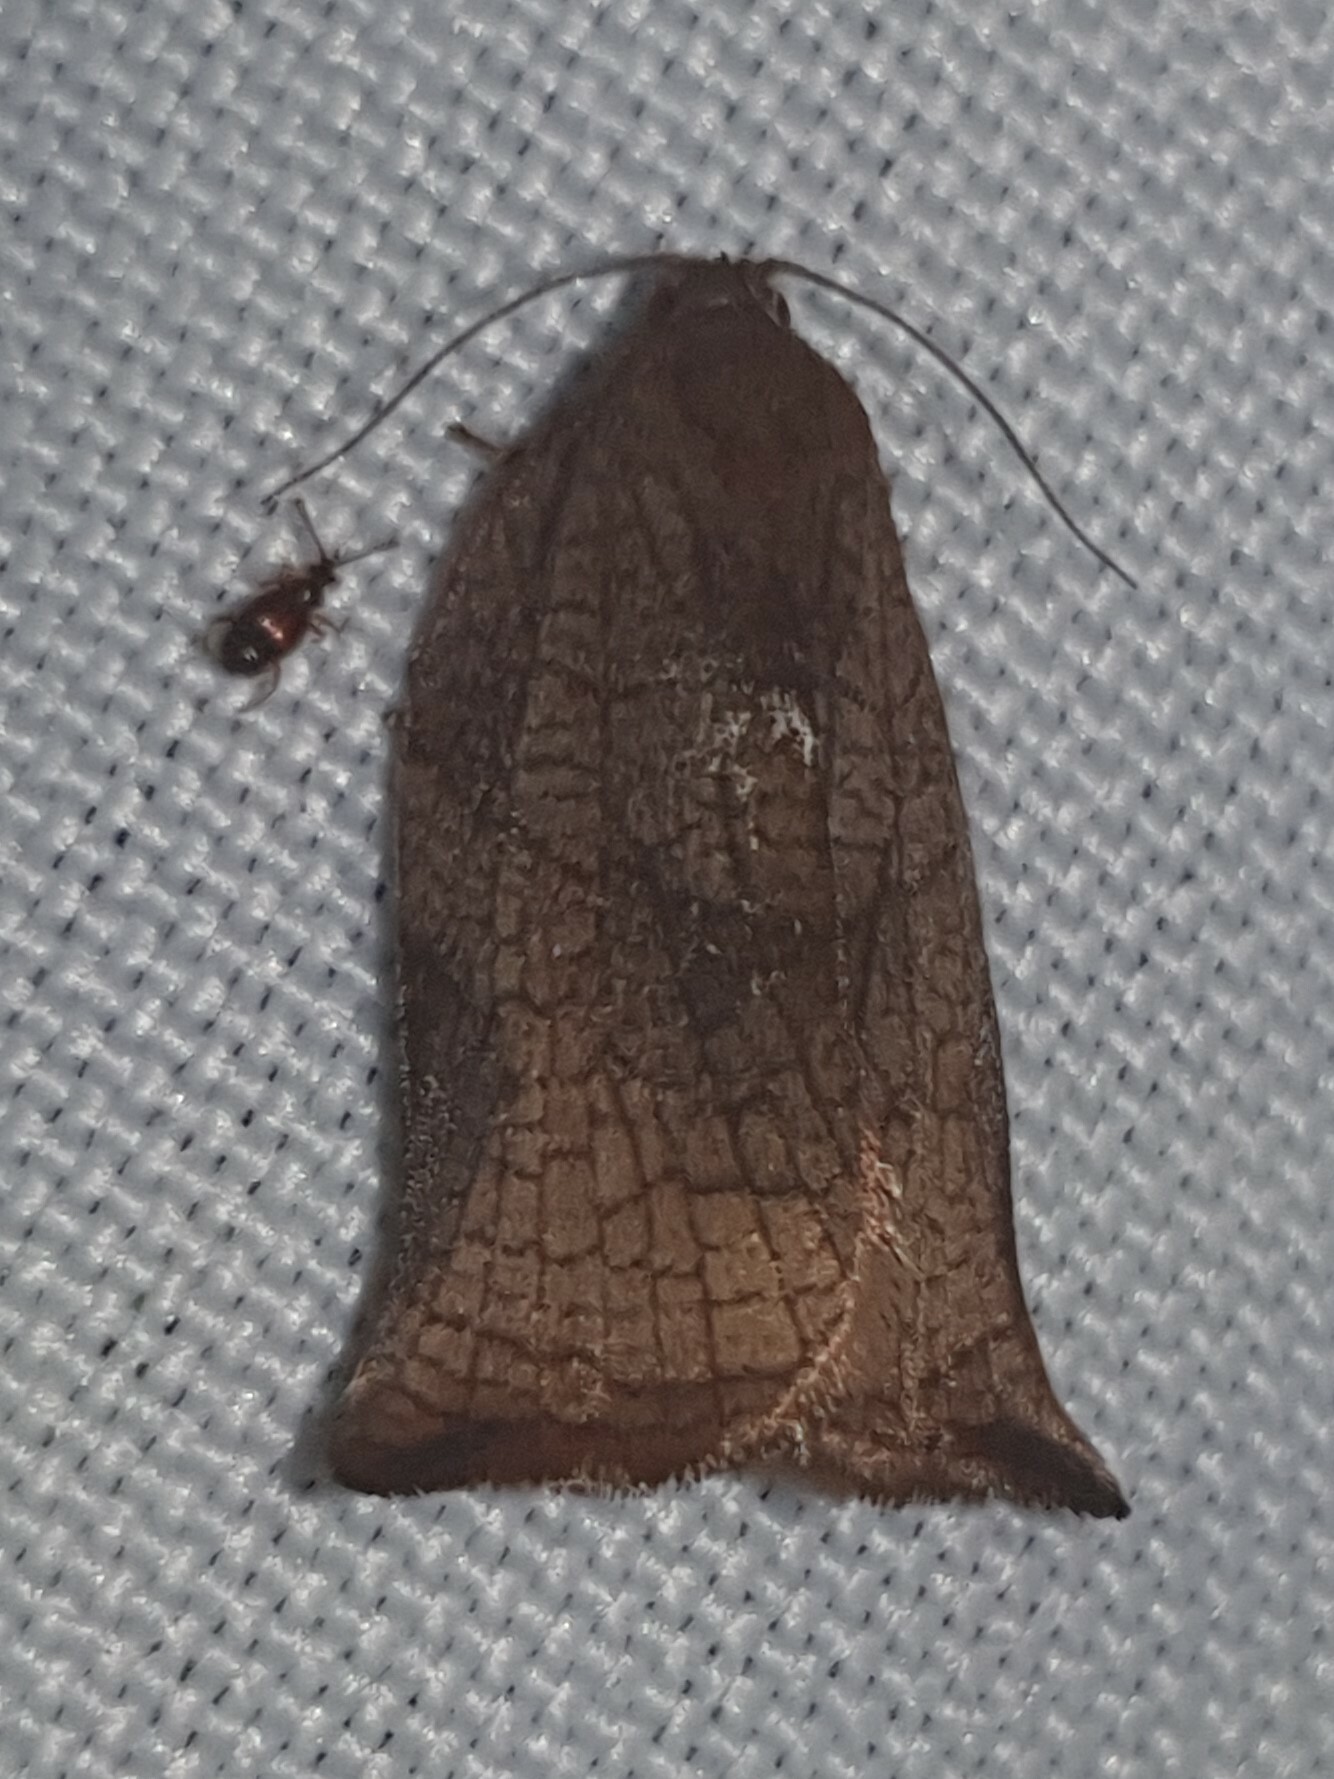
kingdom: Animalia
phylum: Arthropoda
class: Insecta
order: Lepidoptera
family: Tortricidae
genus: Archips
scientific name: Archips podana
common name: Large fruit-tree tortrix
